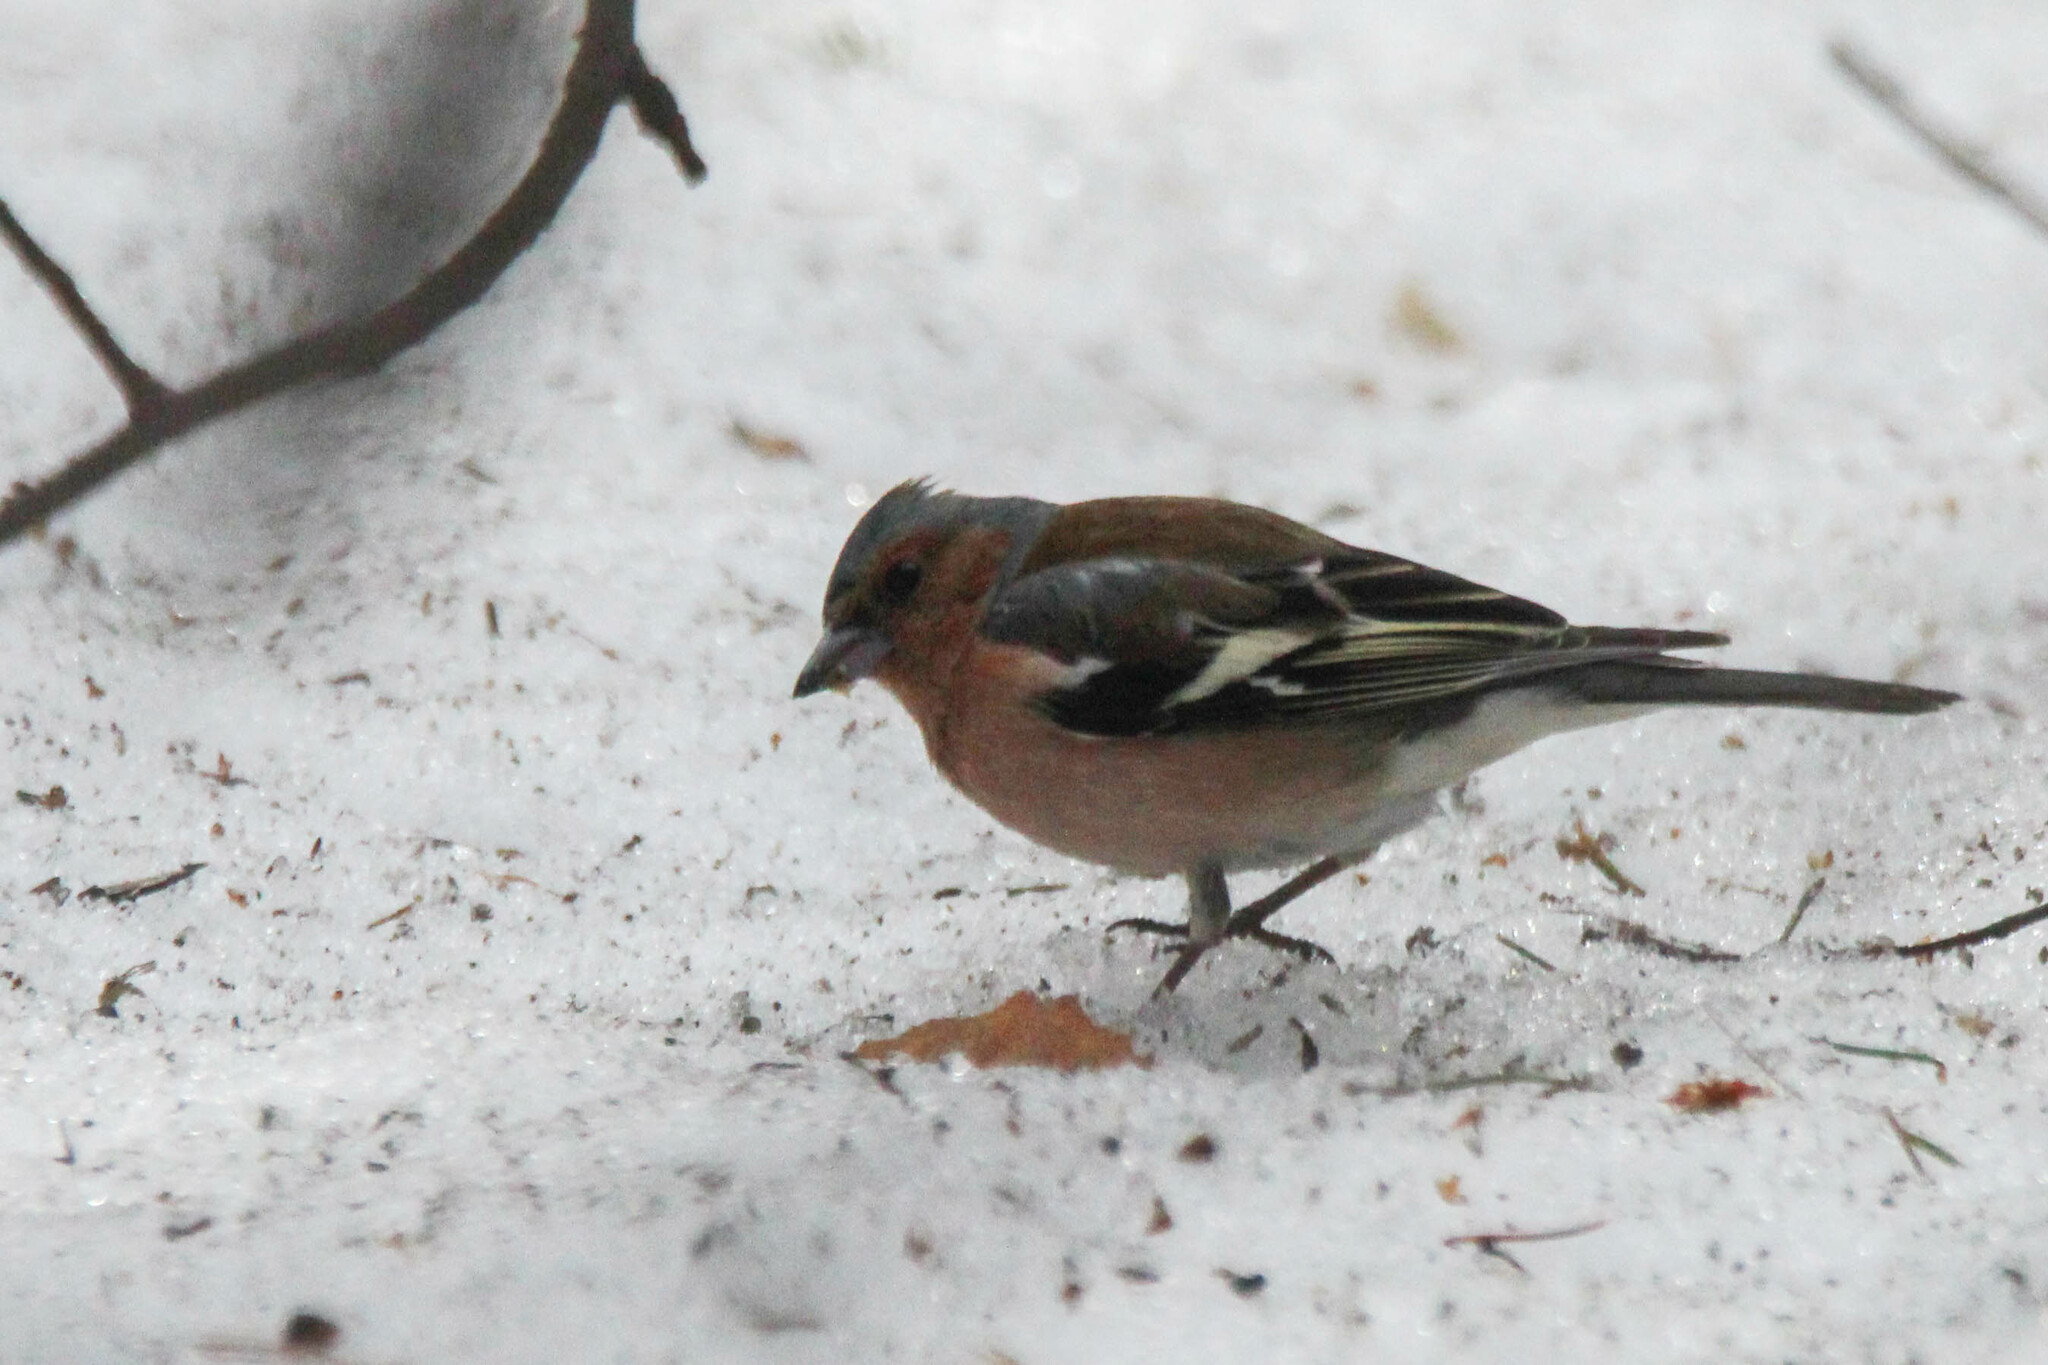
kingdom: Animalia
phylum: Chordata
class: Aves
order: Passeriformes
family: Fringillidae
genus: Fringilla
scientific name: Fringilla coelebs
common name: Common chaffinch
